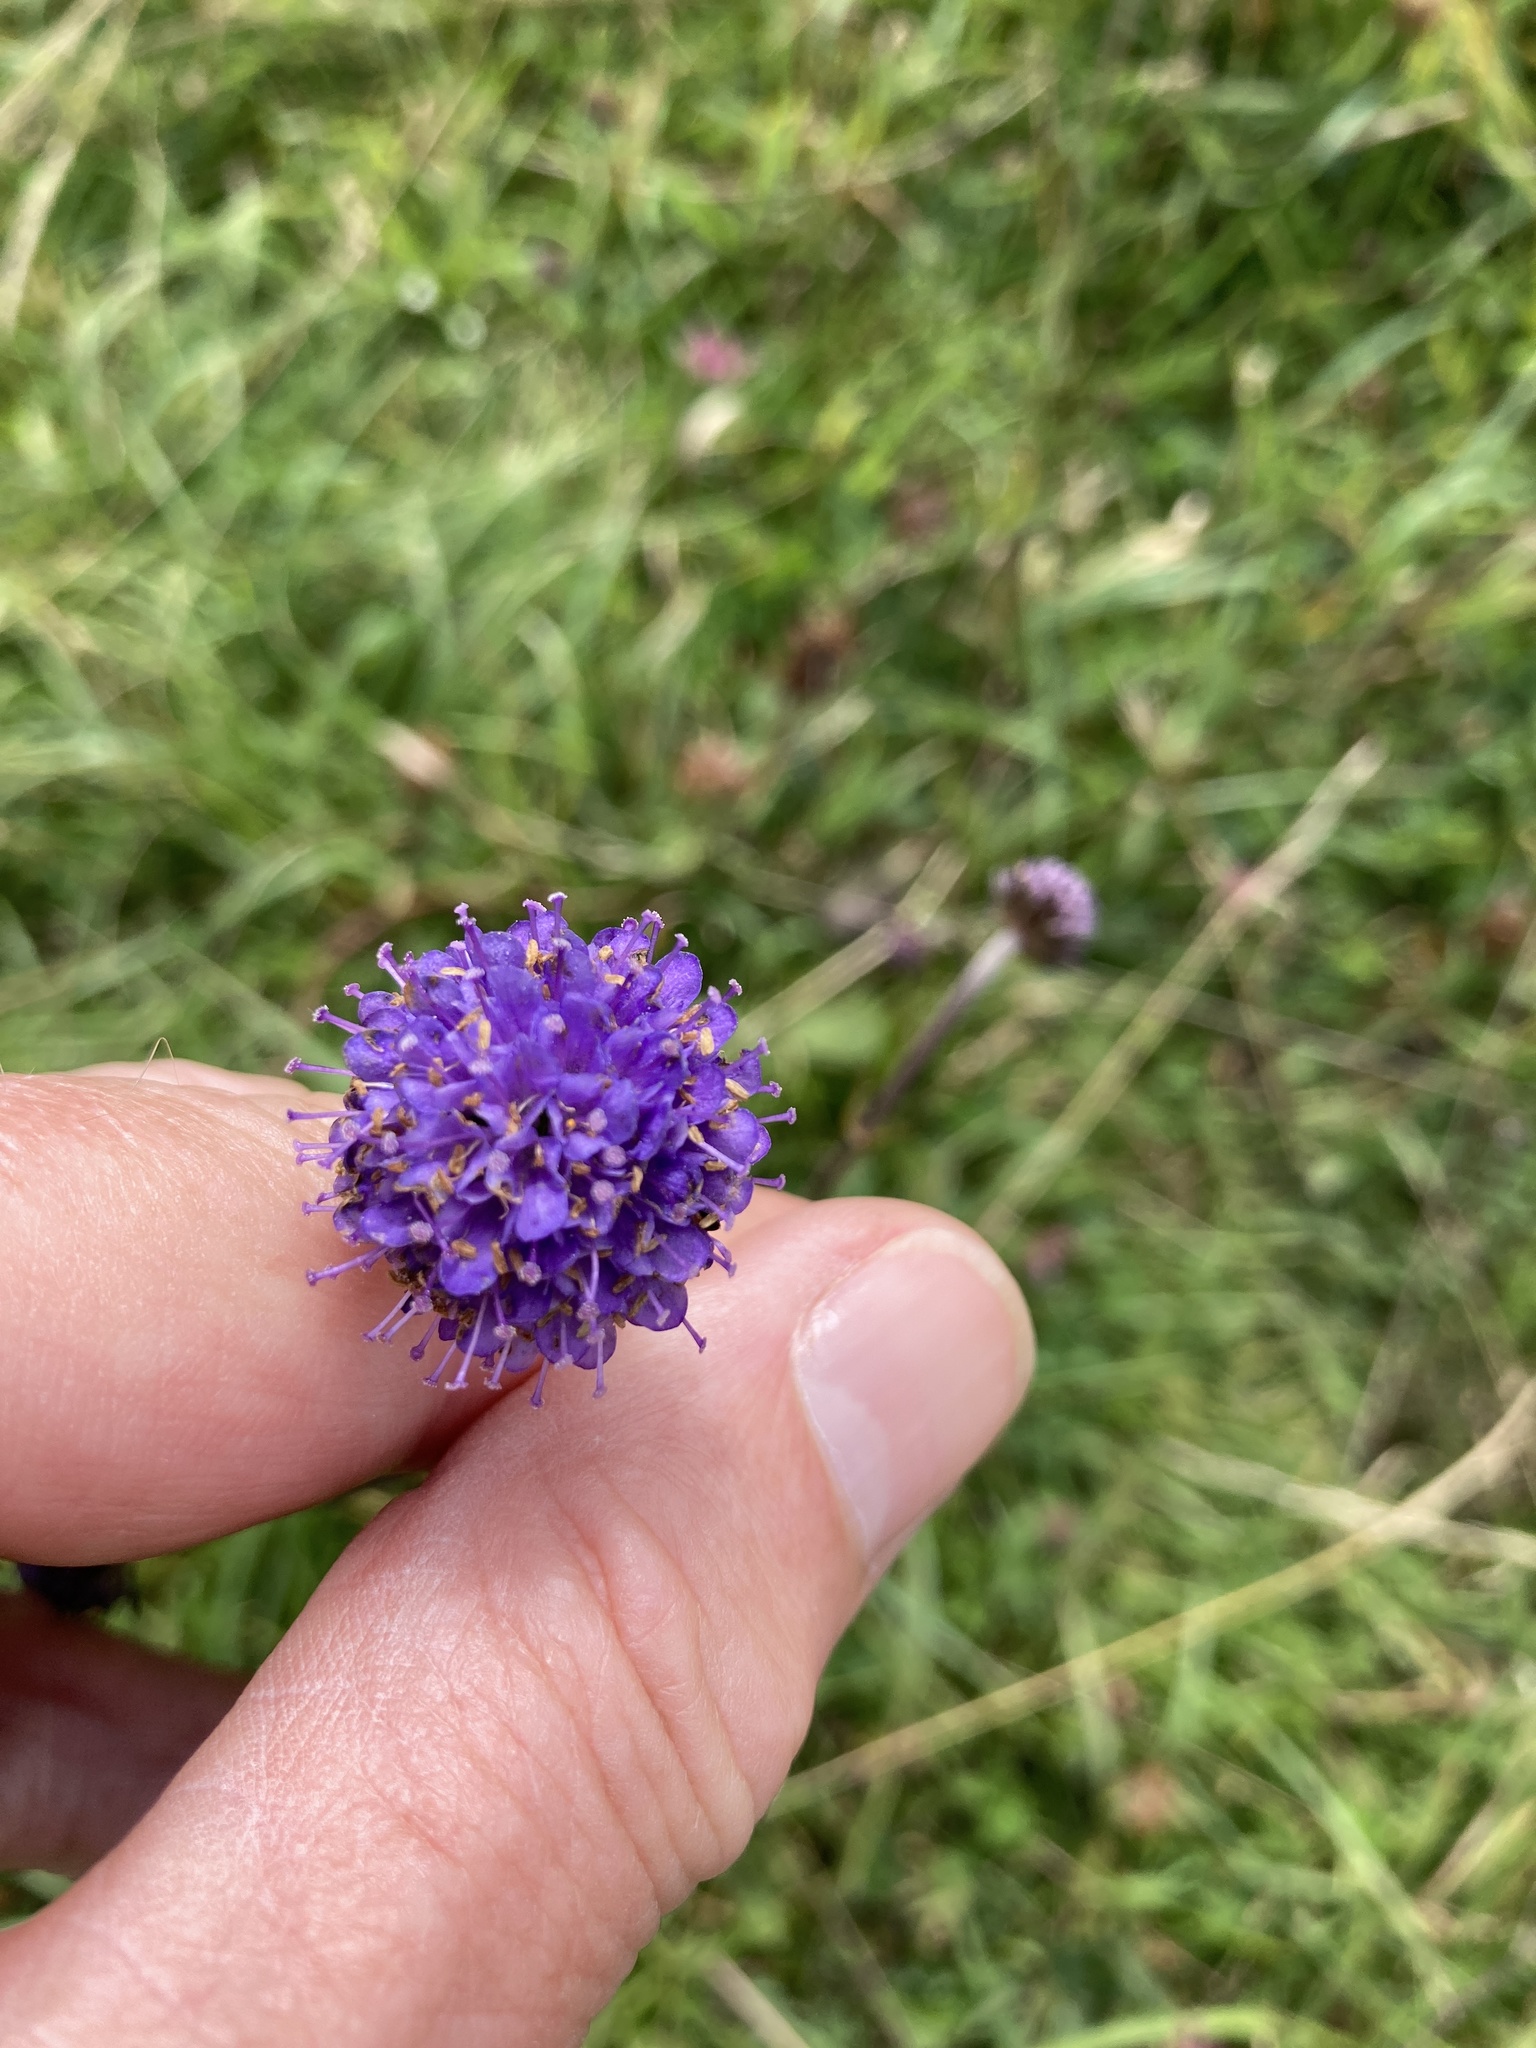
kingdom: Plantae
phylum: Tracheophyta
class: Magnoliopsida
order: Dipsacales
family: Caprifoliaceae
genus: Succisa
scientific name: Succisa pratensis
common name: Devil's-bit
